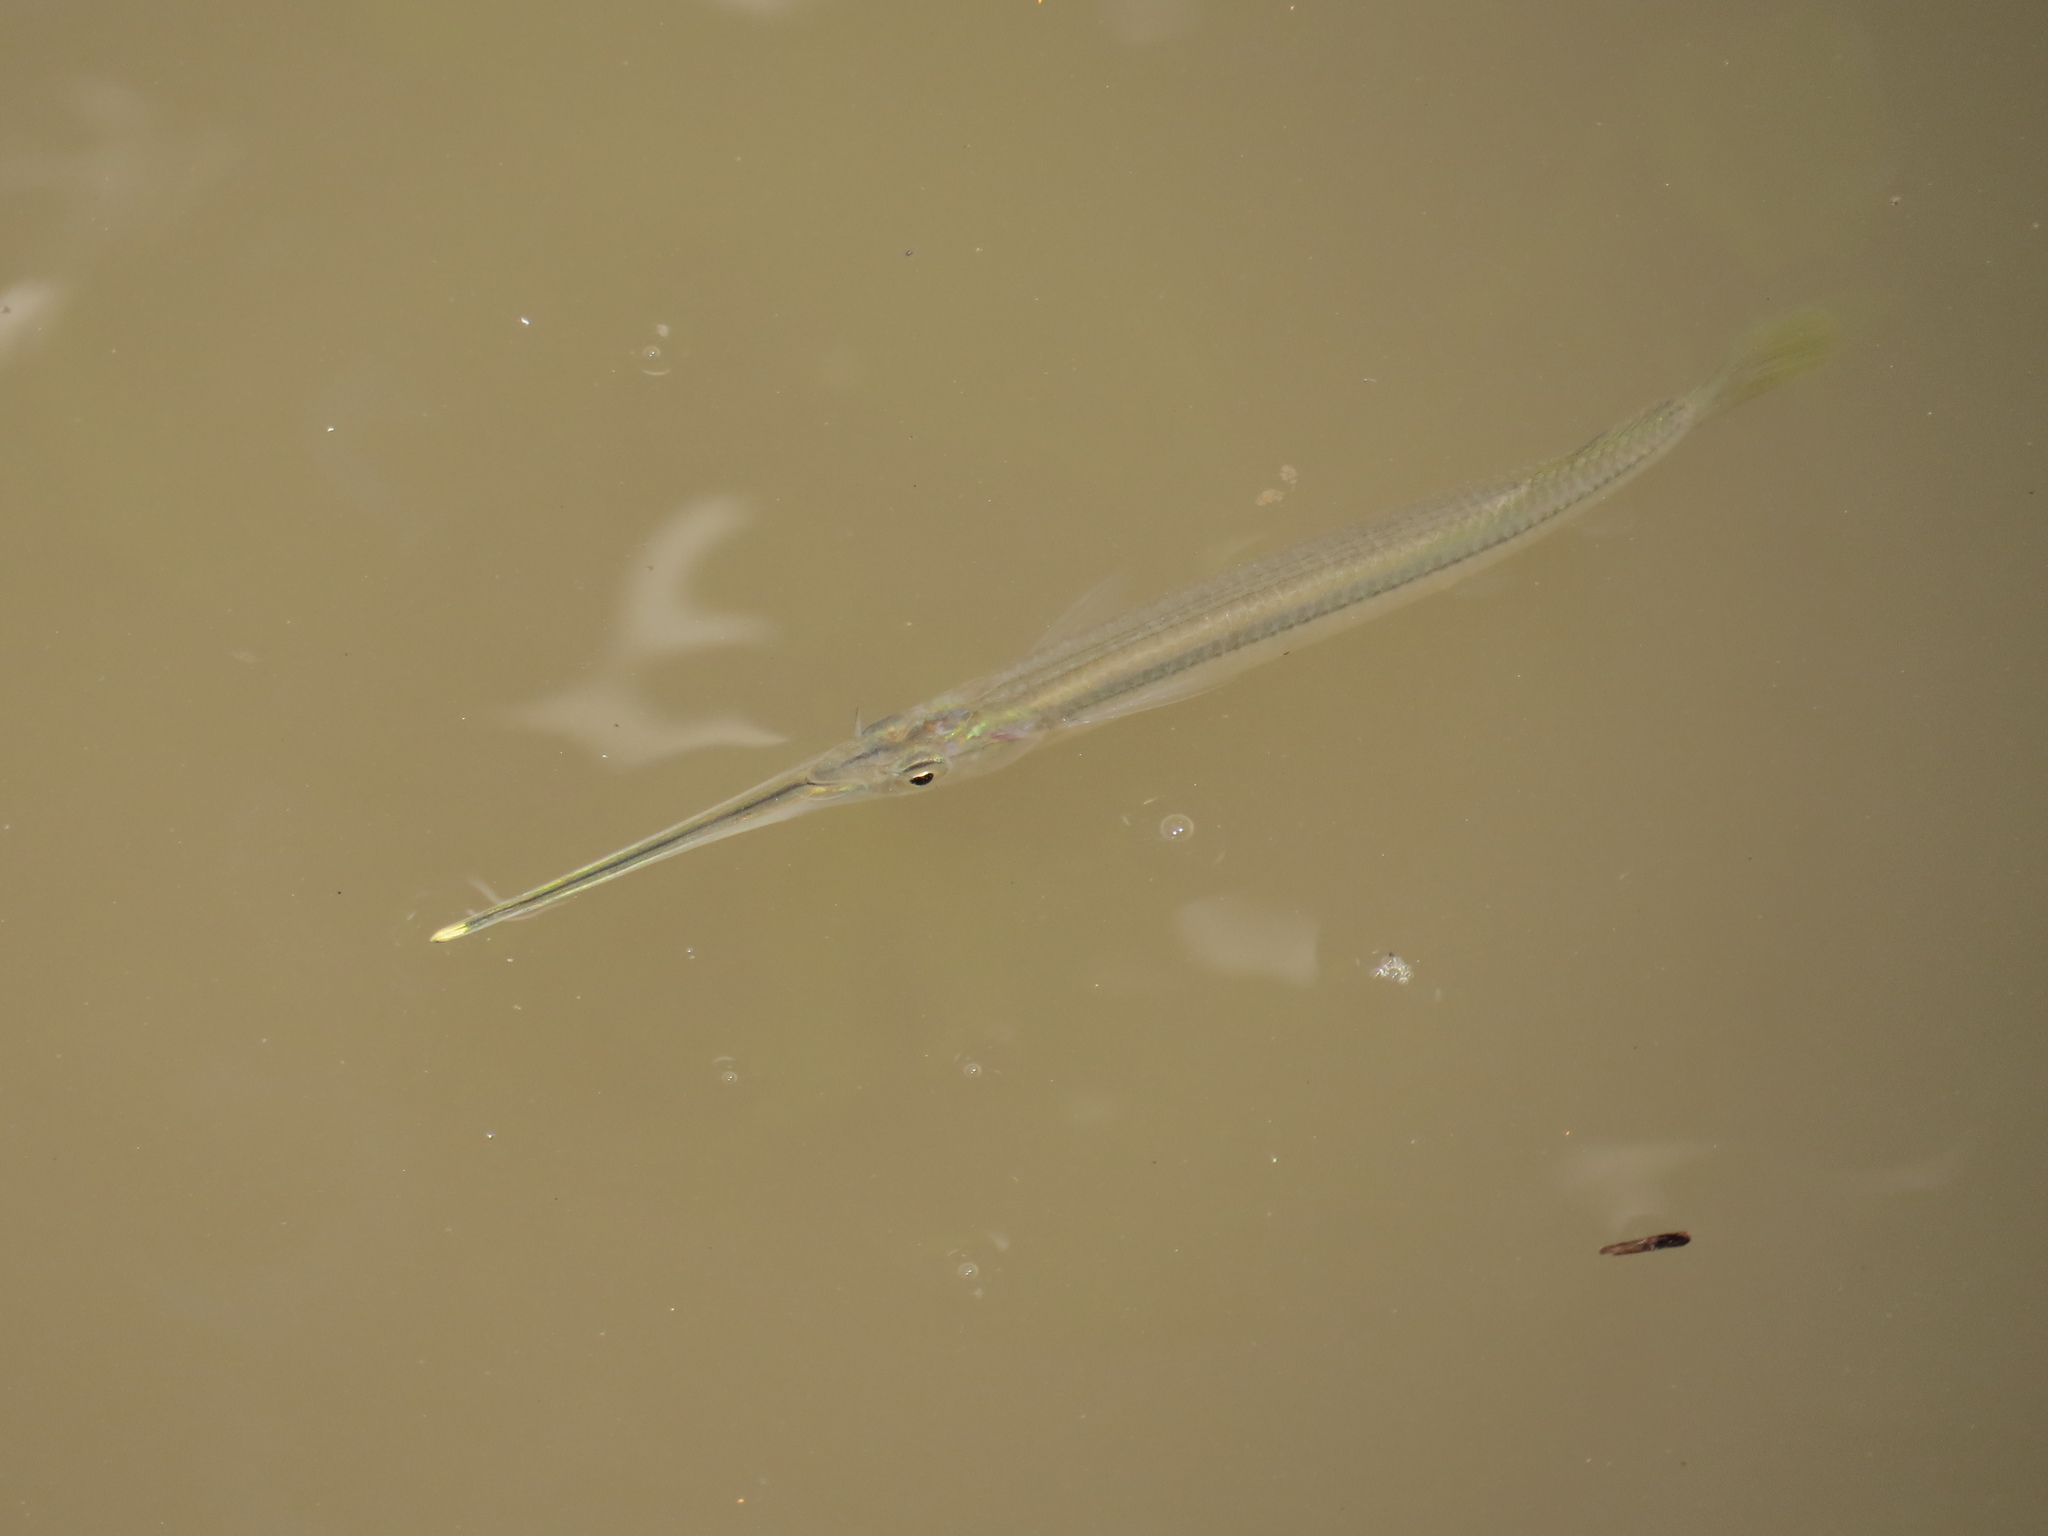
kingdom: Animalia
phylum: Chordata
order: Beloniformes
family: Zenarchopteridae
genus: Zenarchopterus
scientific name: Zenarchopterus buffonis
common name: Buffon's river-garfish
